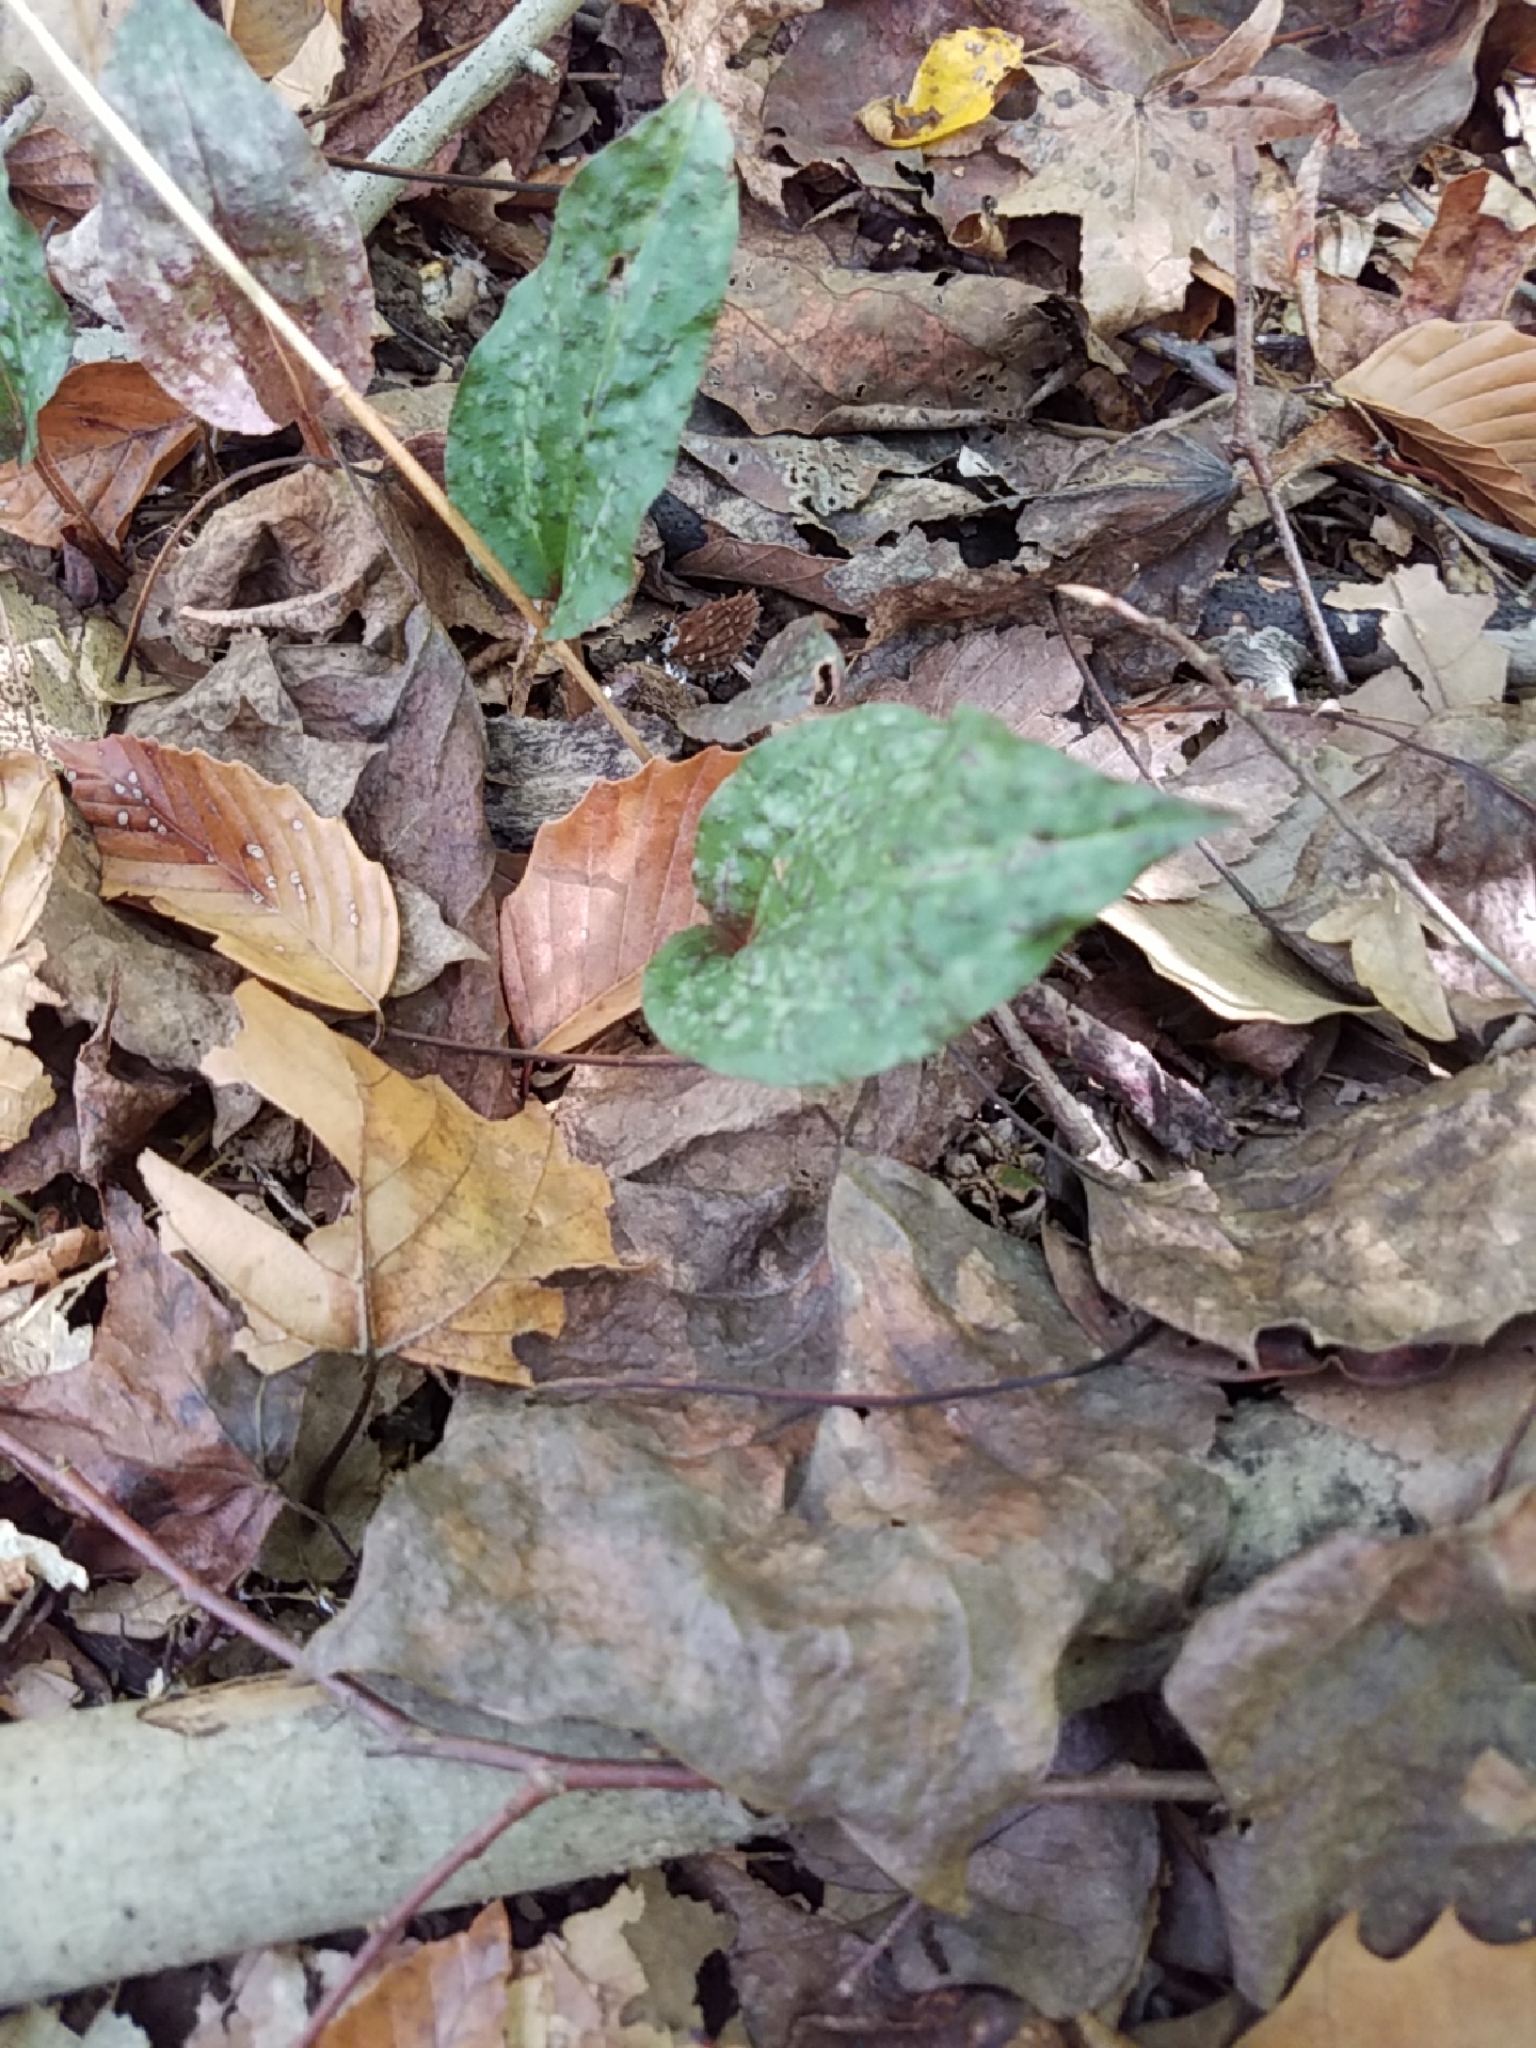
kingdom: Plantae
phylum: Tracheophyta
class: Liliopsida
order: Asparagales
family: Orchidaceae
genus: Tipularia
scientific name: Tipularia discolor
